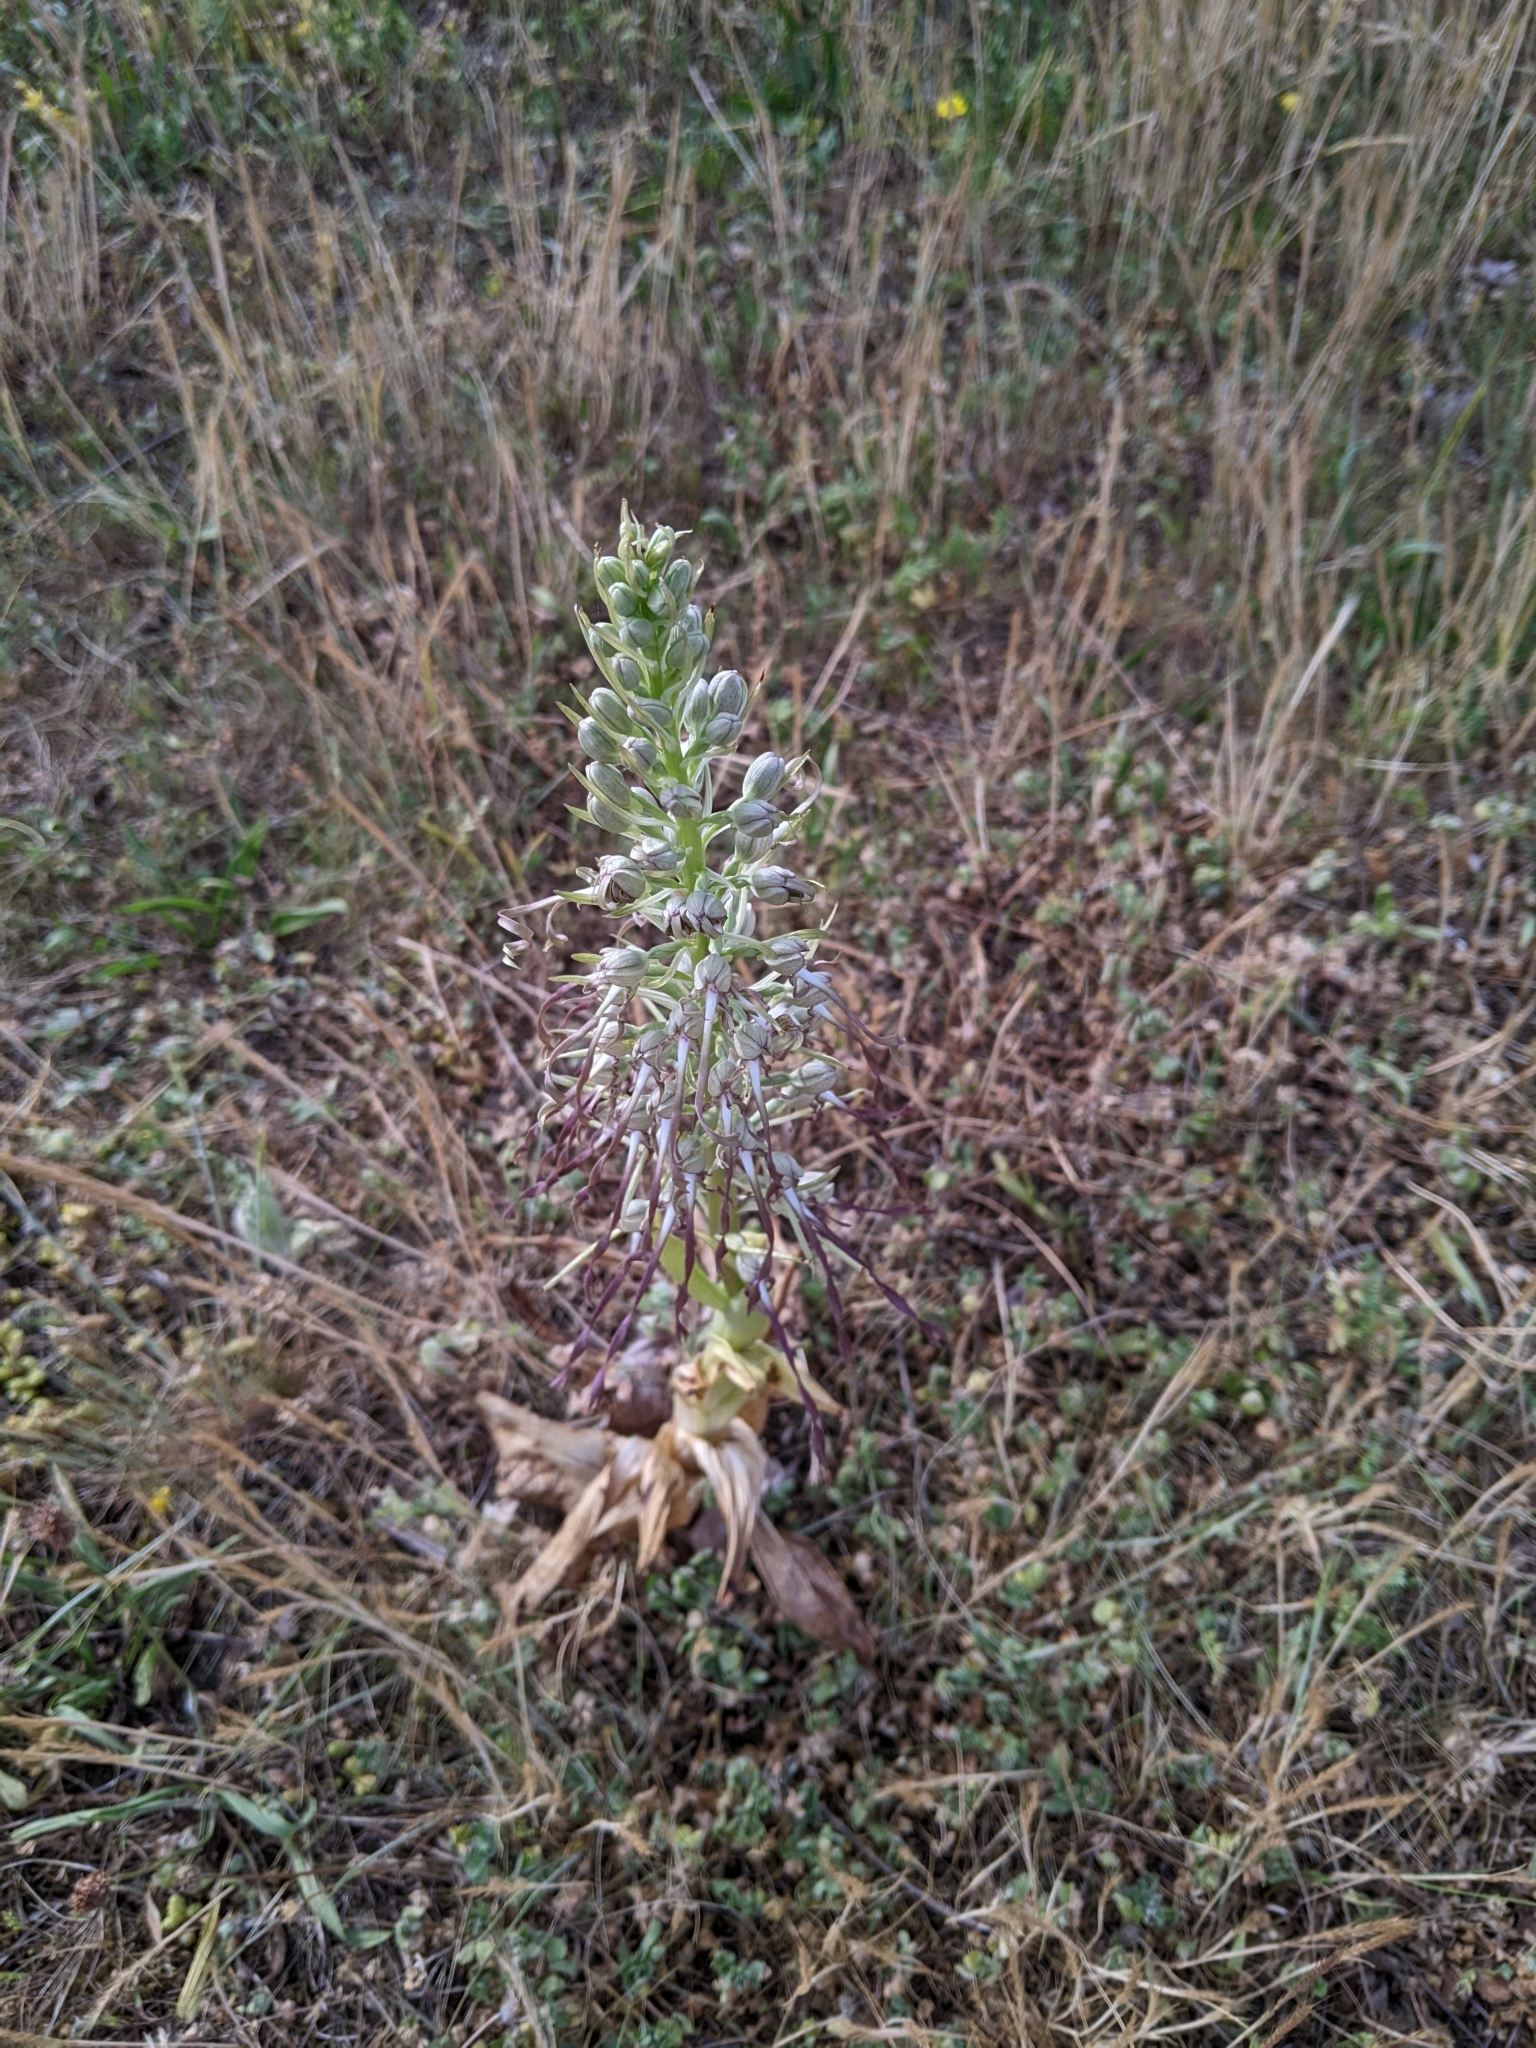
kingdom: Plantae
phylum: Tracheophyta
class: Liliopsida
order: Asparagales
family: Orchidaceae
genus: Himantoglossum
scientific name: Himantoglossum hircinum
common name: Lizard orchid
